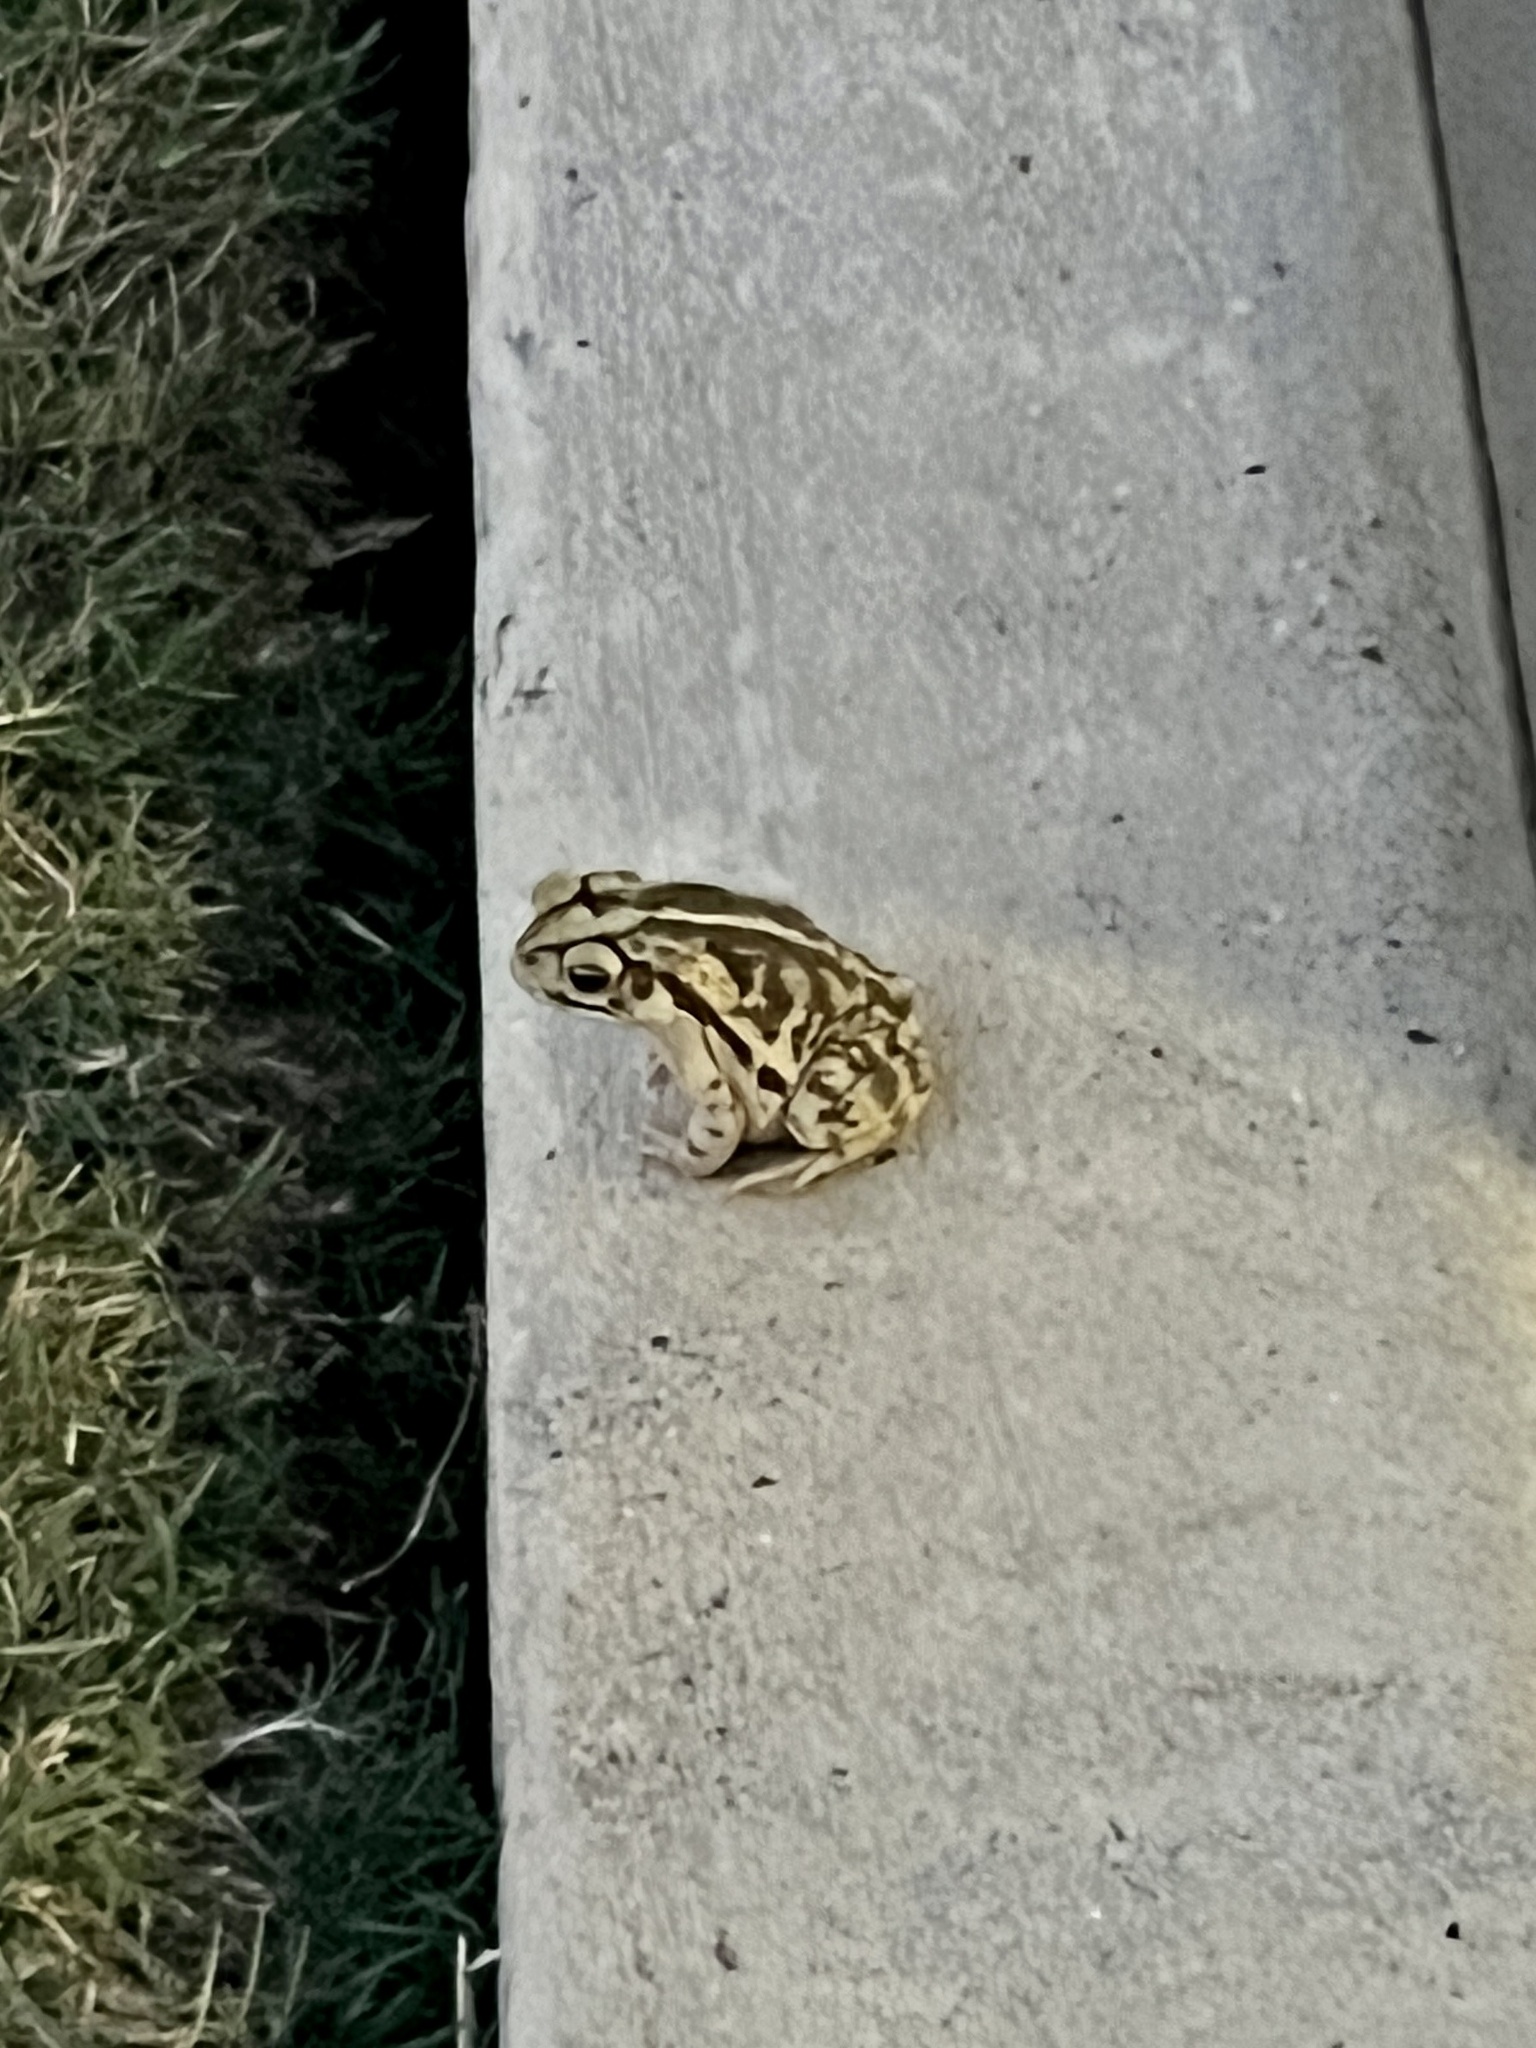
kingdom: Animalia
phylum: Chordata
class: Amphibia
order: Anura
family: Bufonidae
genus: Incilius
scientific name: Incilius nebulifer
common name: Gulf coast toad
